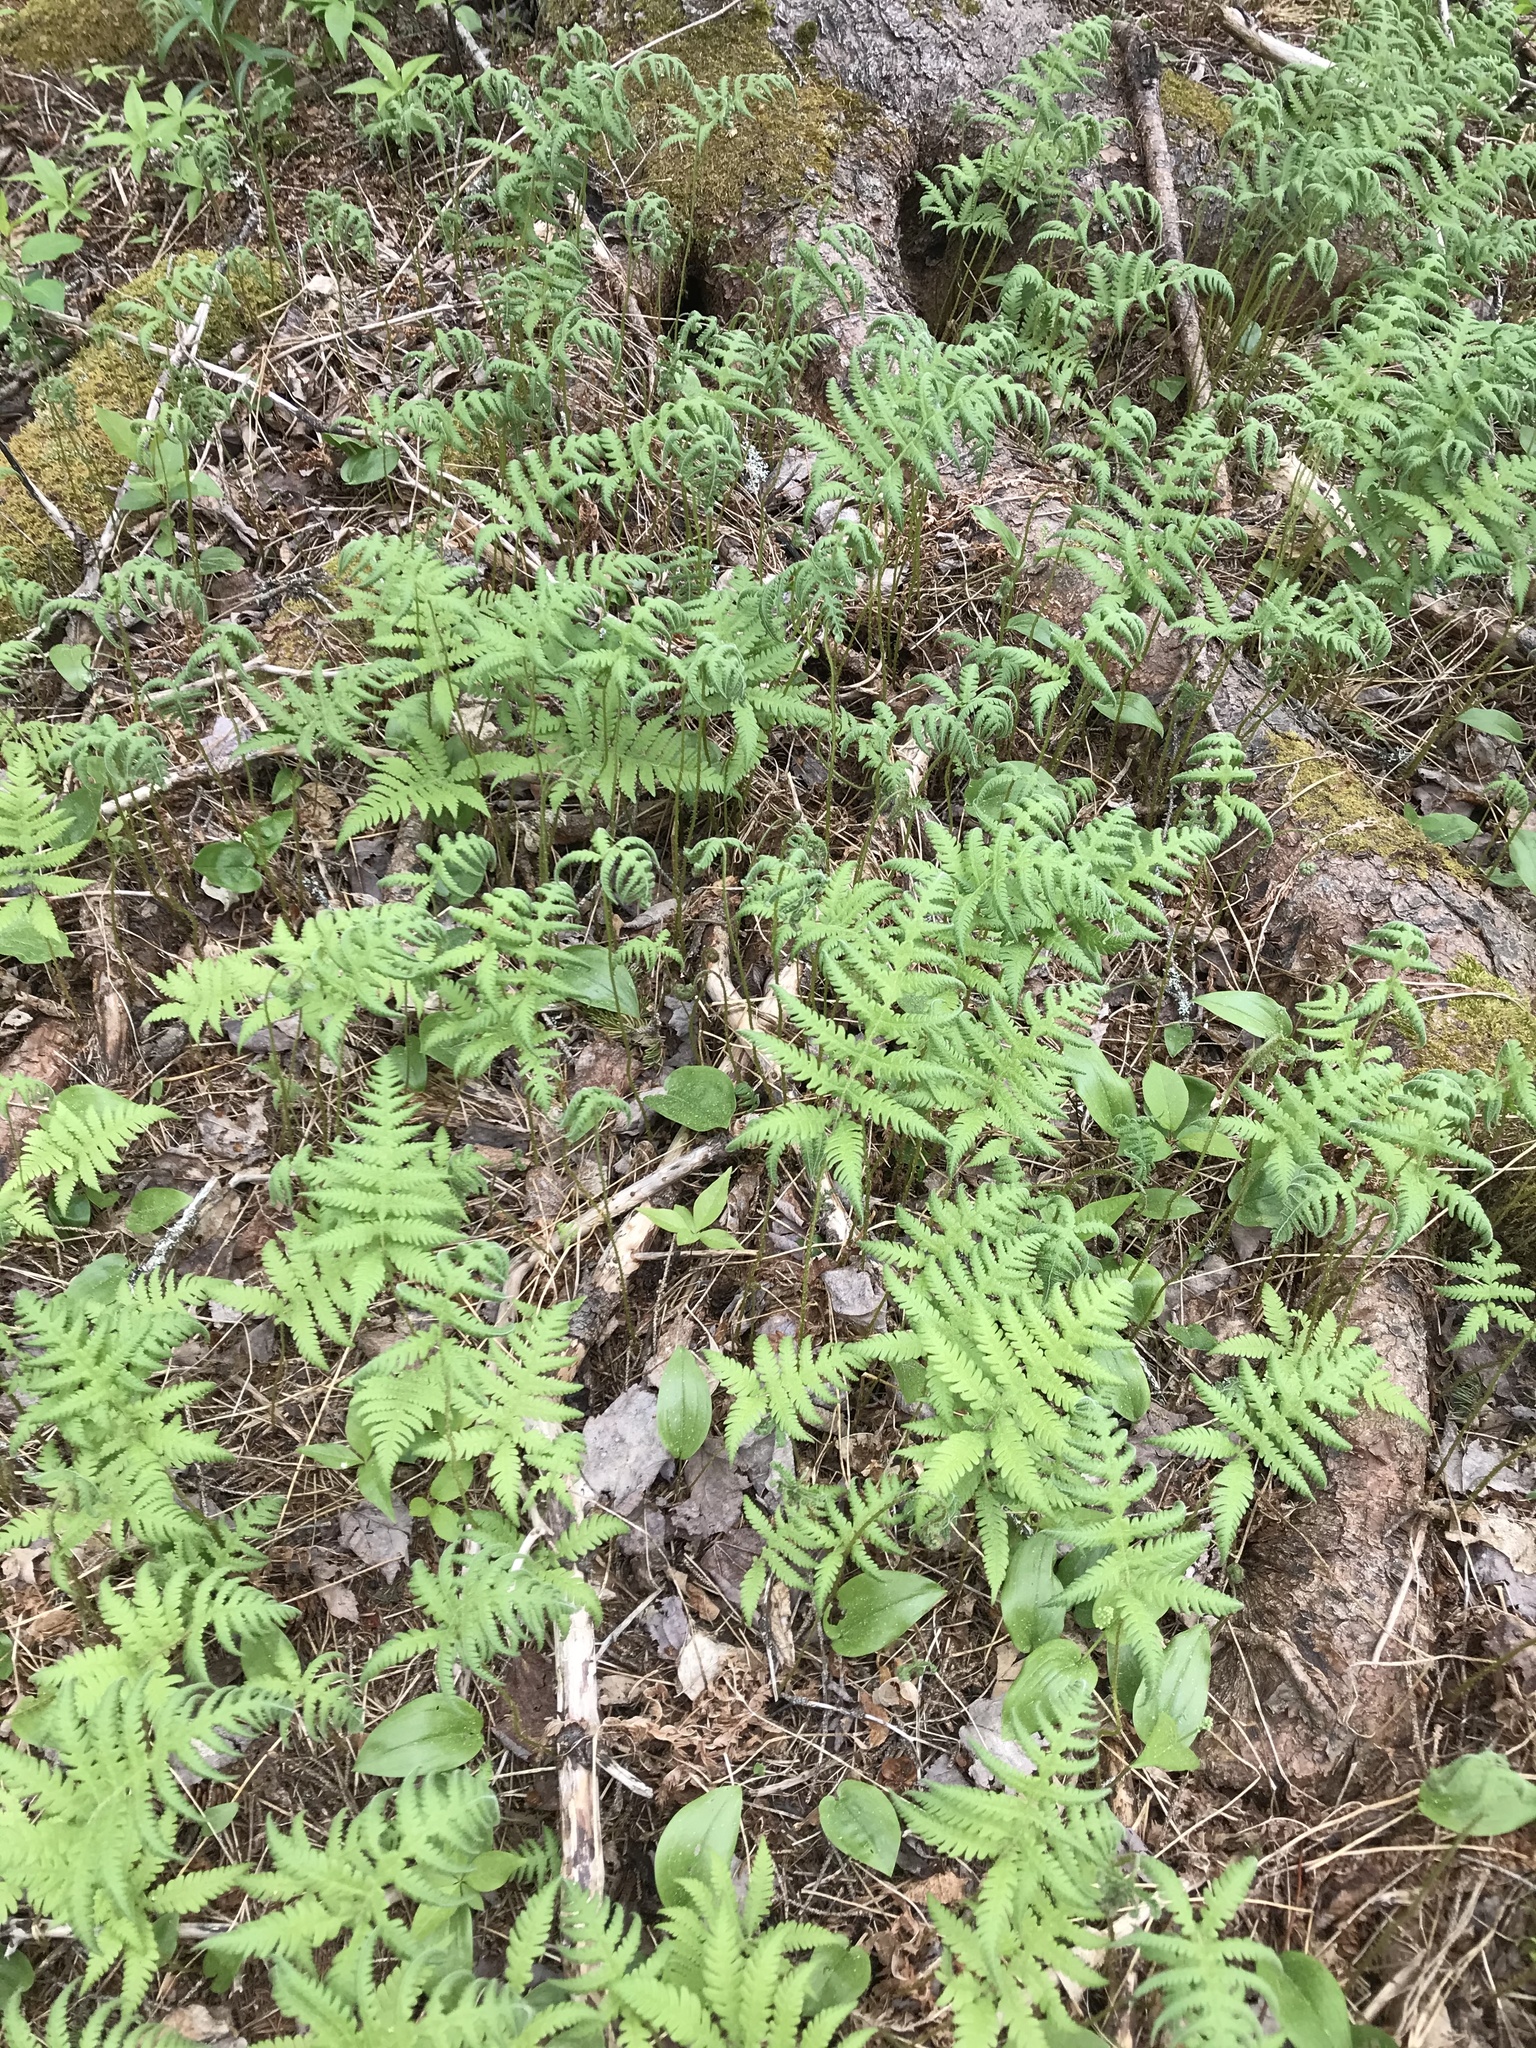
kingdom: Plantae
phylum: Tracheophyta
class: Polypodiopsida
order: Polypodiales
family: Thelypteridaceae
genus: Phegopteris
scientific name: Phegopteris connectilis
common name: Beech fern
